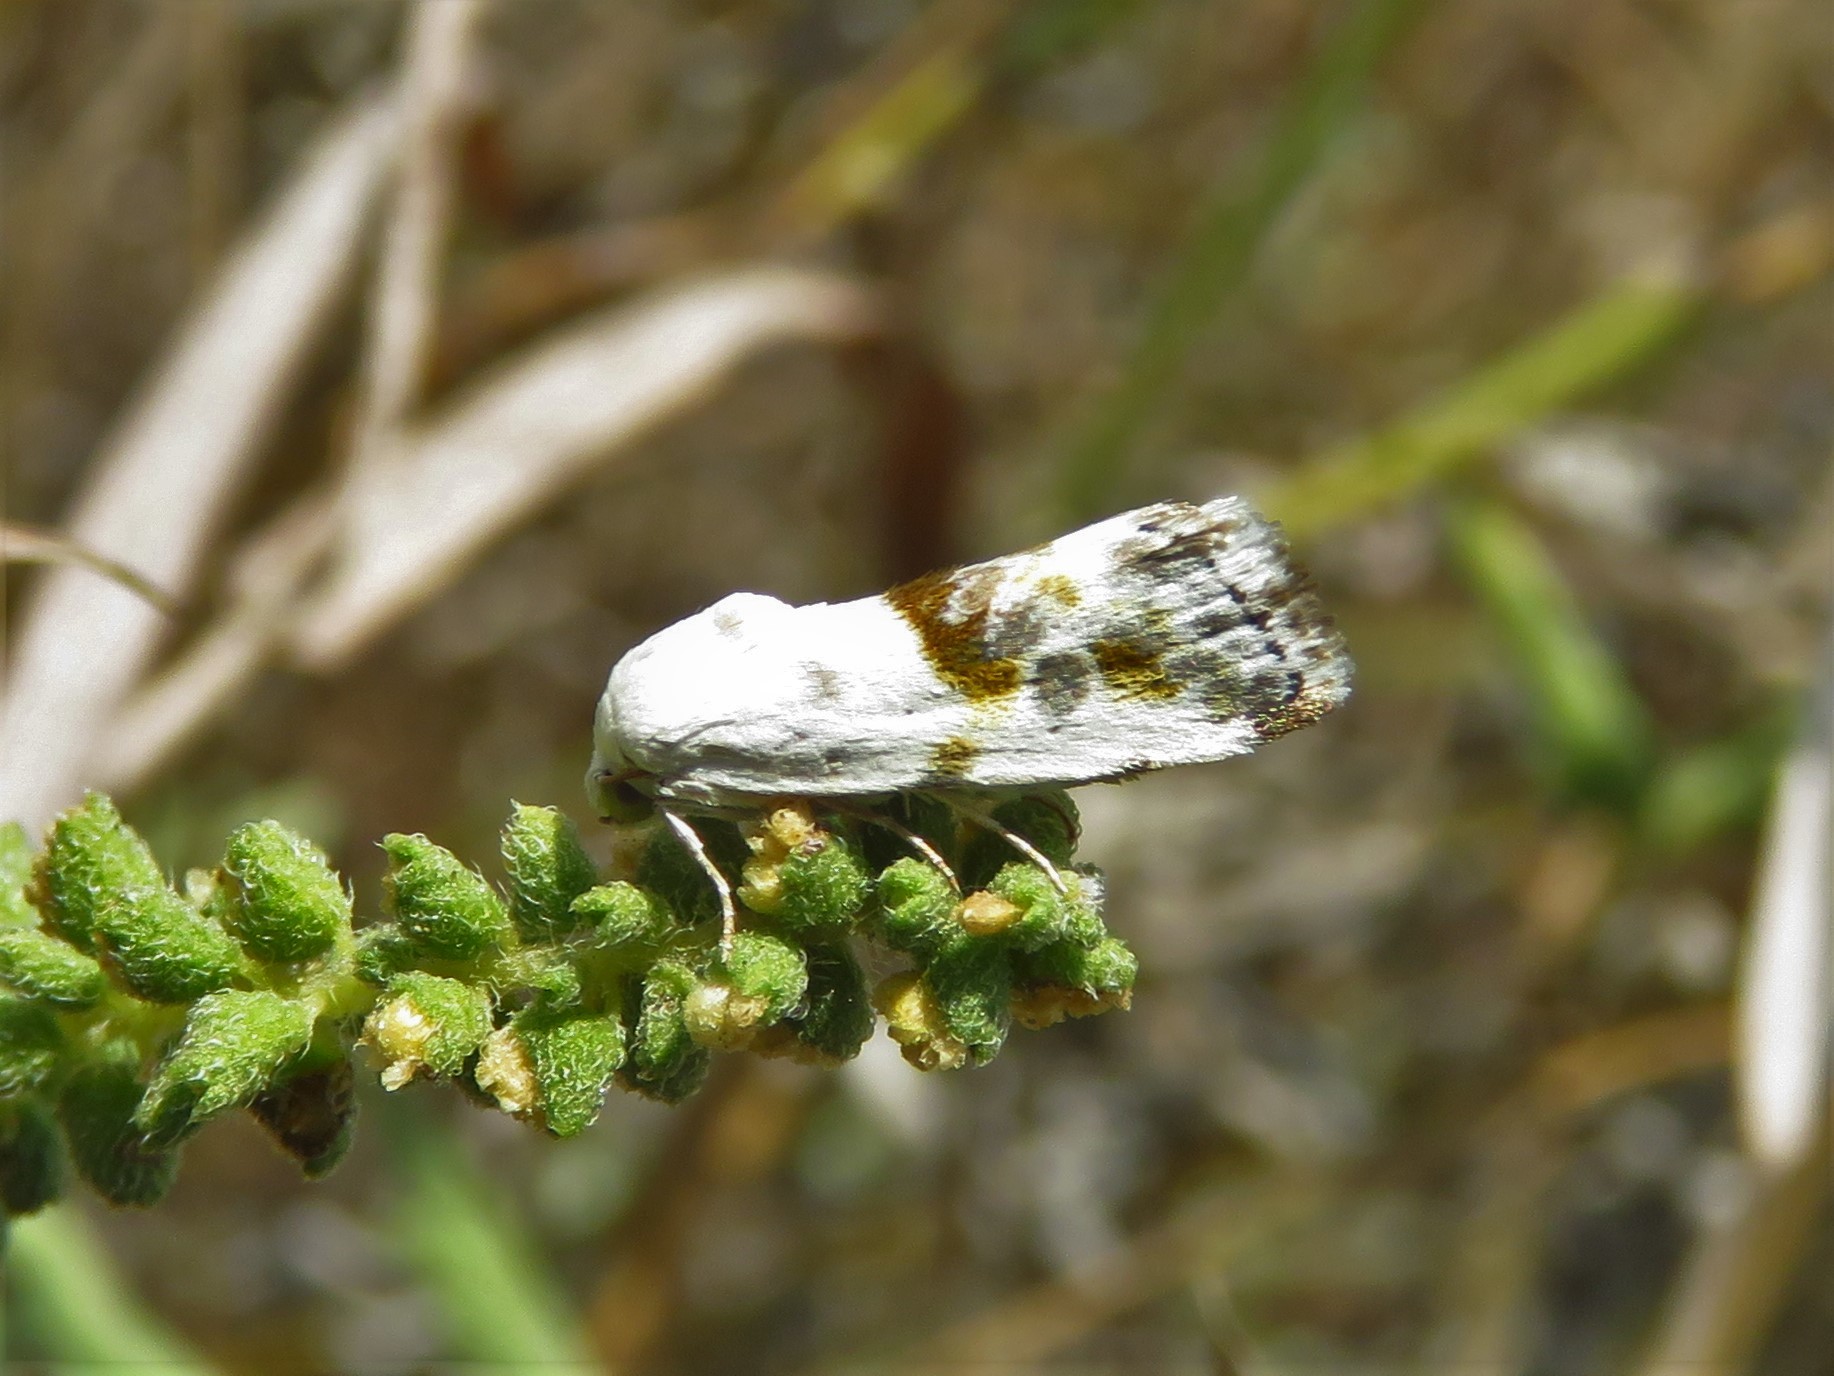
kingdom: Animalia
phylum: Arthropoda
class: Insecta
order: Lepidoptera
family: Noctuidae
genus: Acontia
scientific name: Acontia candefacta
